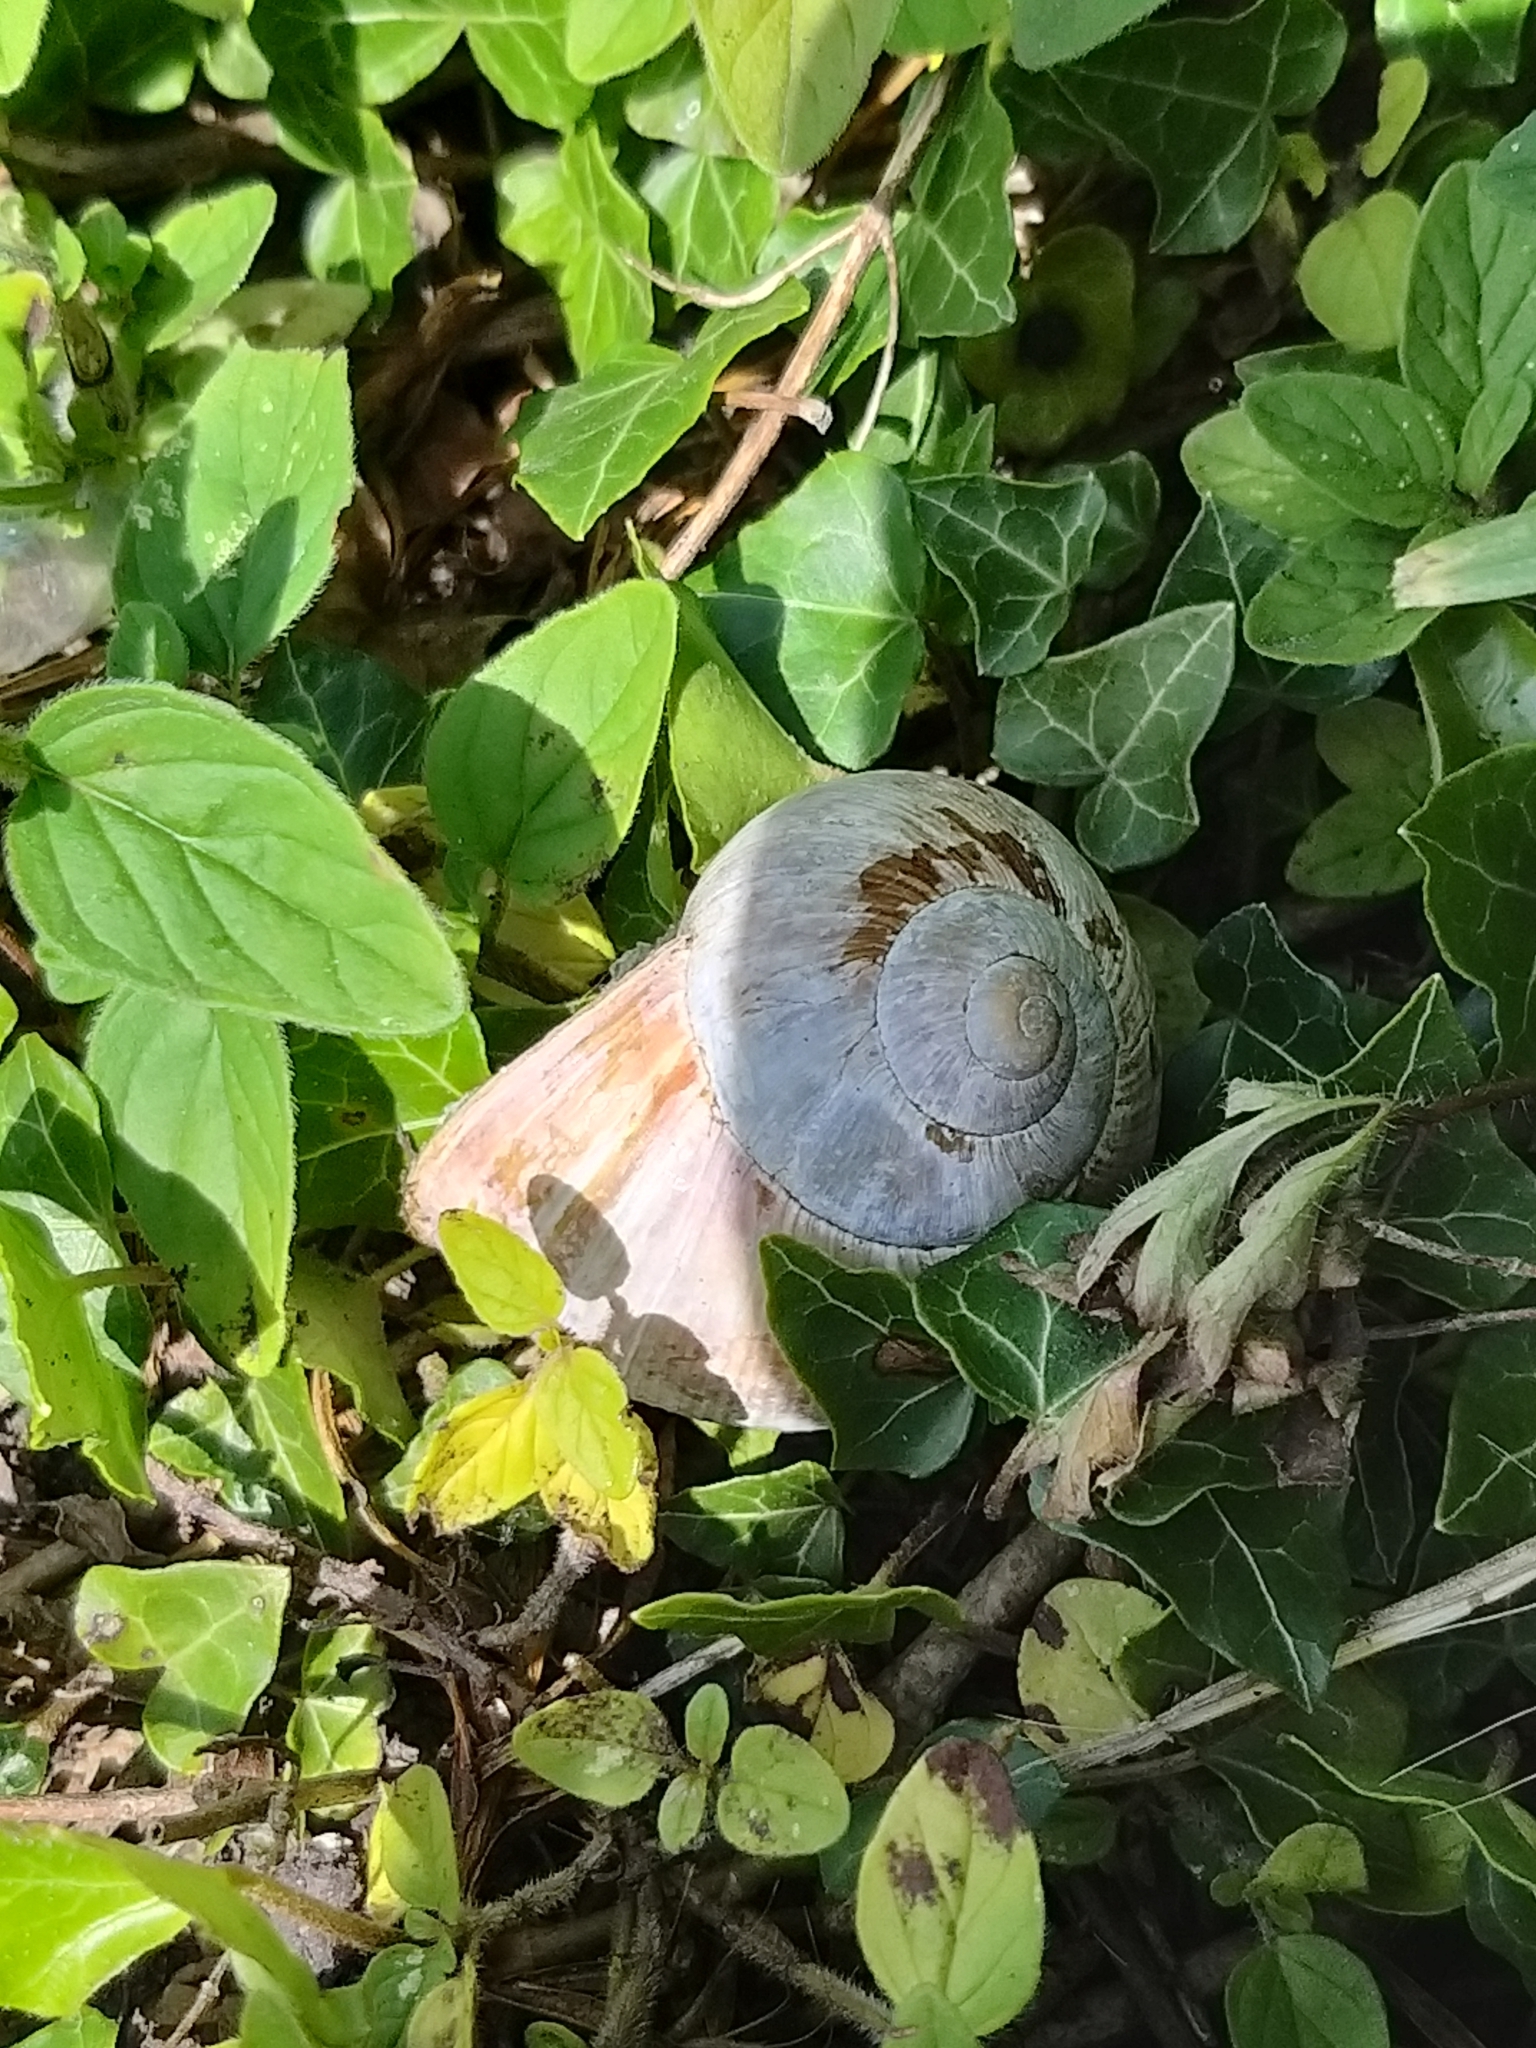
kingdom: Animalia
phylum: Mollusca
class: Gastropoda
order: Stylommatophora
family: Helicidae
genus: Helix
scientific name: Helix pomatia
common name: Roman snail
